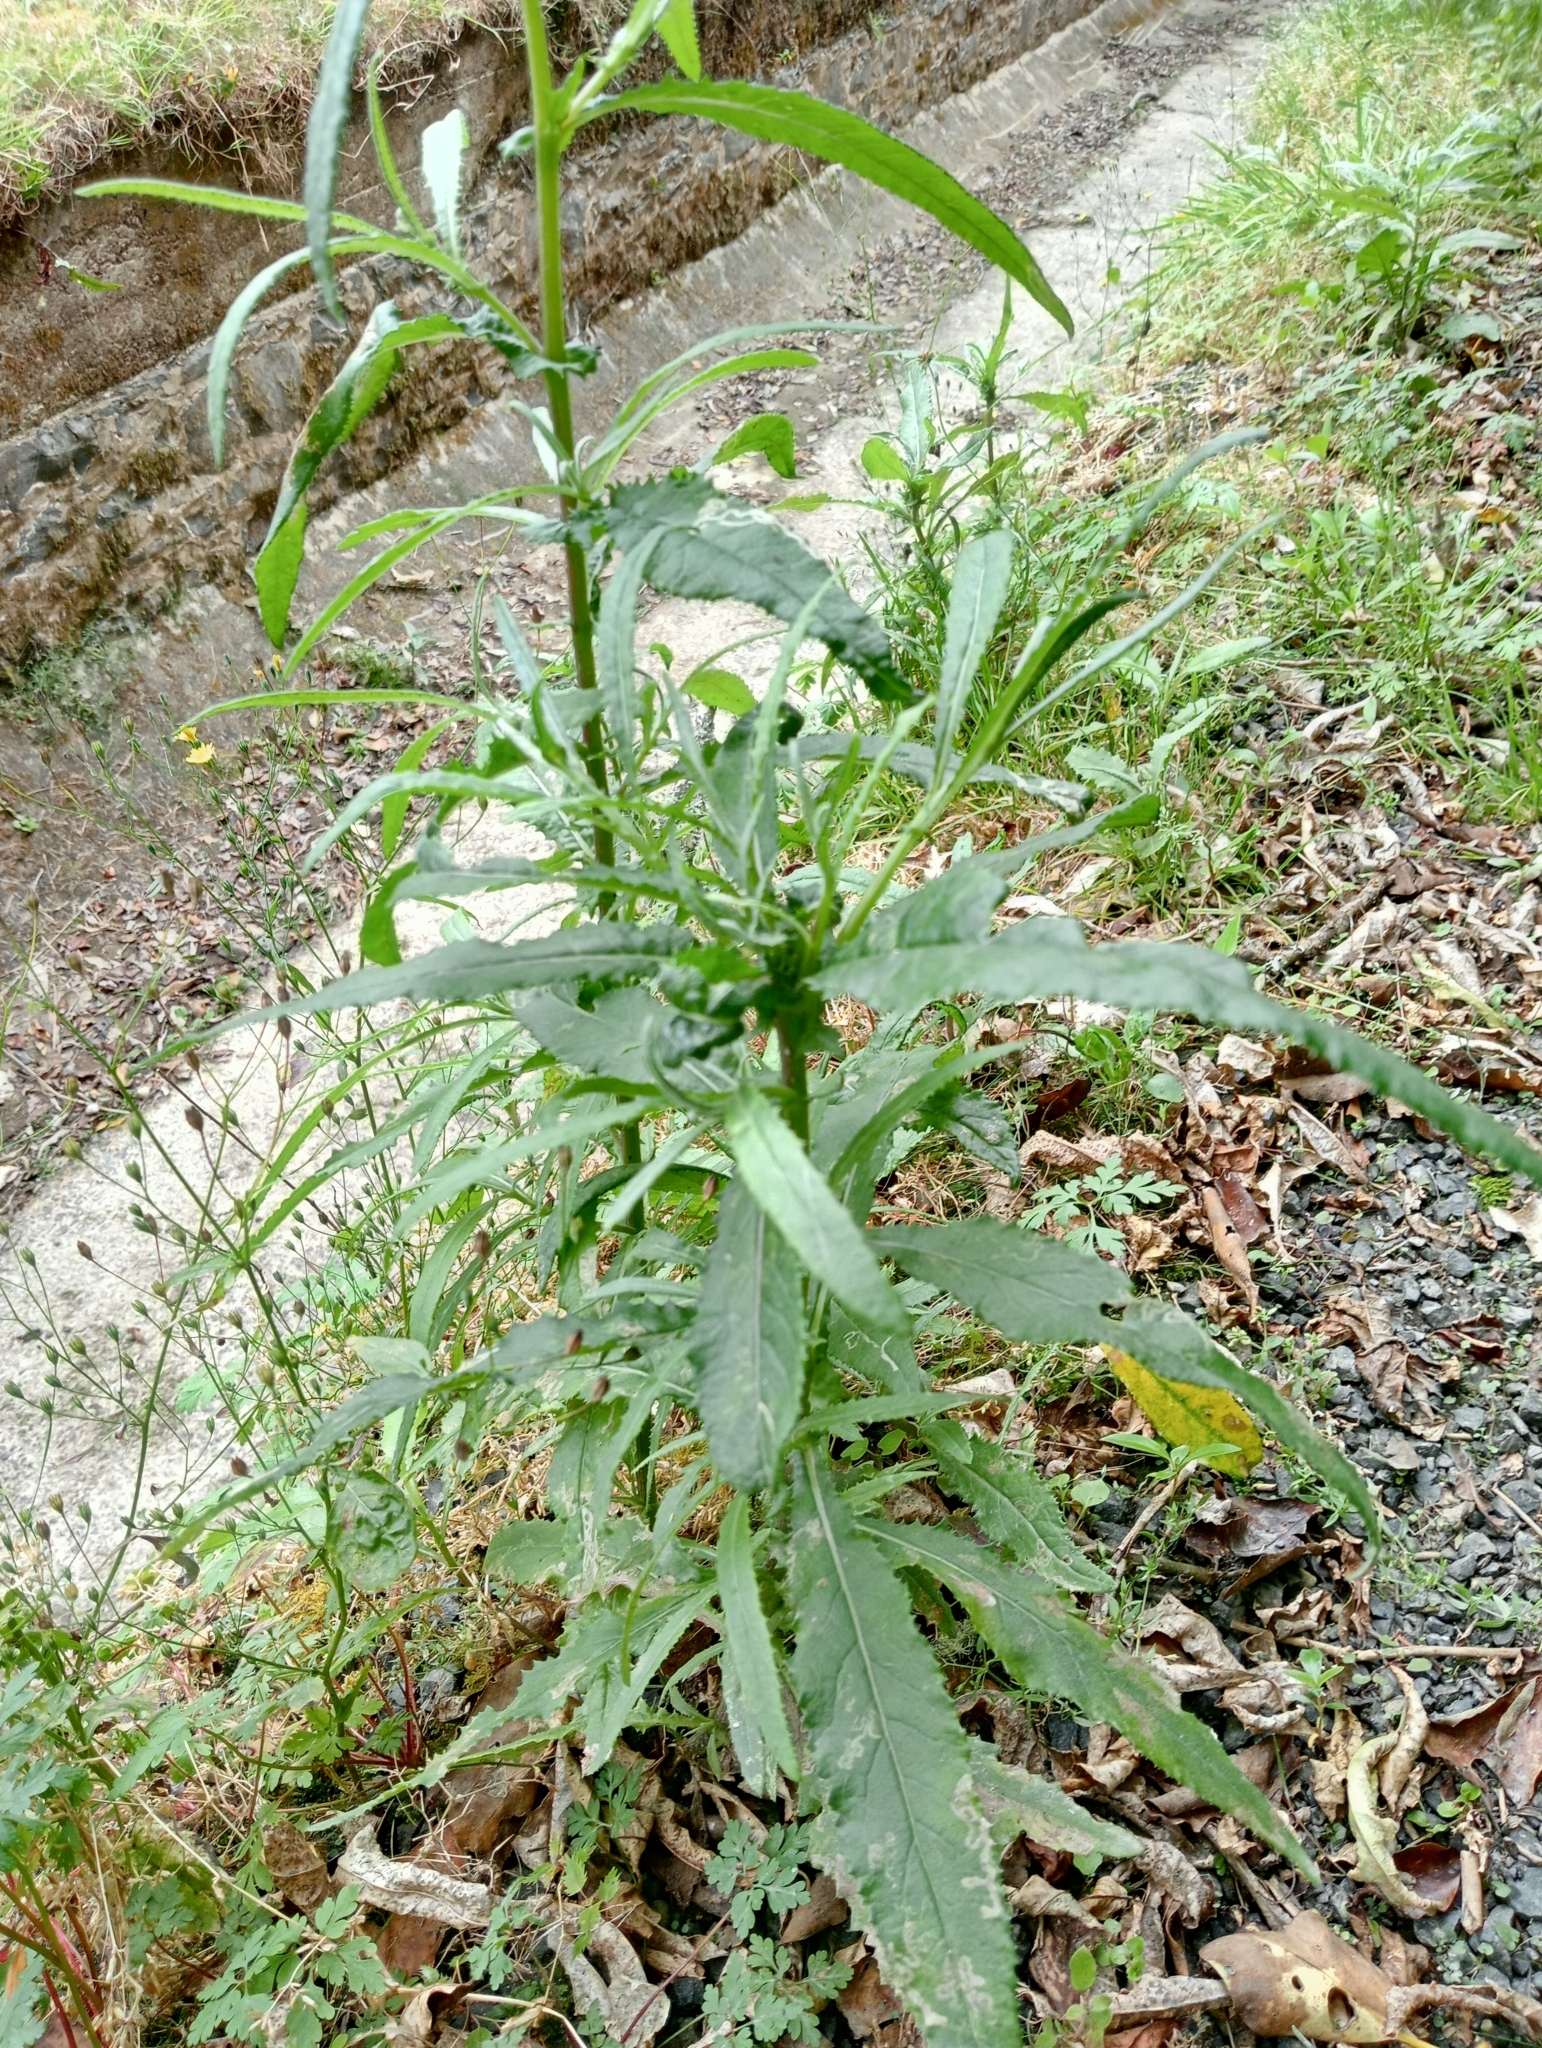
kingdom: Plantae
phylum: Tracheophyta
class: Magnoliopsida
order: Asterales
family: Asteraceae
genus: Senecio
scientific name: Senecio minimus
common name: Toothed fireweed
